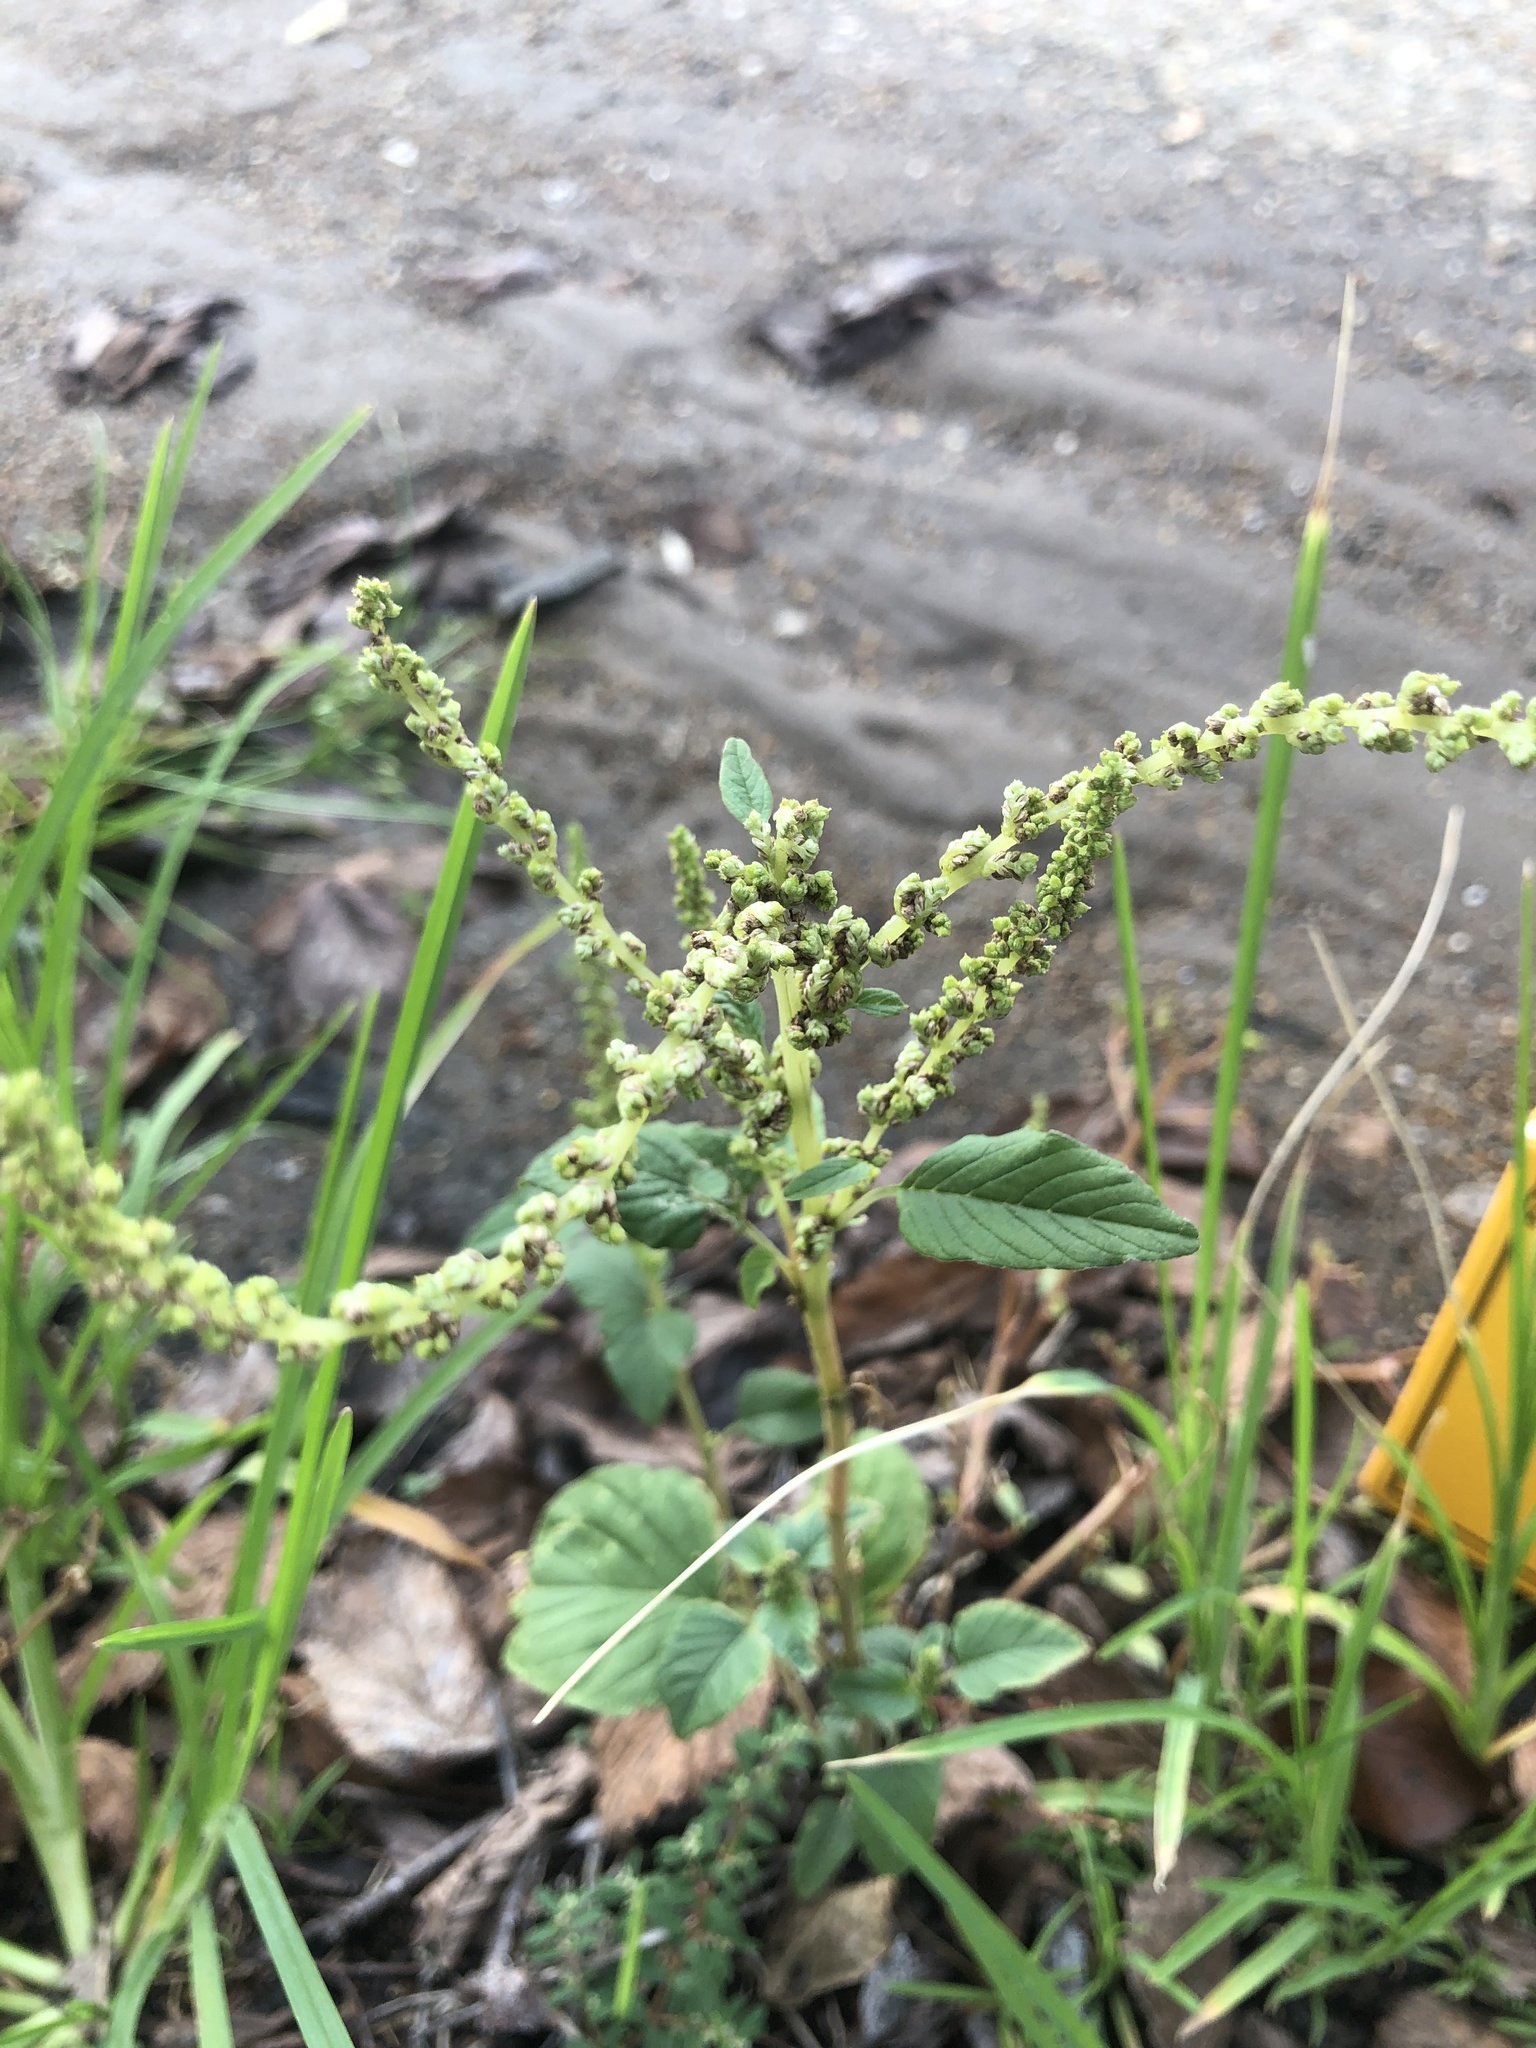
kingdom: Plantae
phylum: Tracheophyta
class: Magnoliopsida
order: Caryophyllales
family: Amaranthaceae
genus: Amaranthus
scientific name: Amaranthus viridis
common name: Slender amaranth
